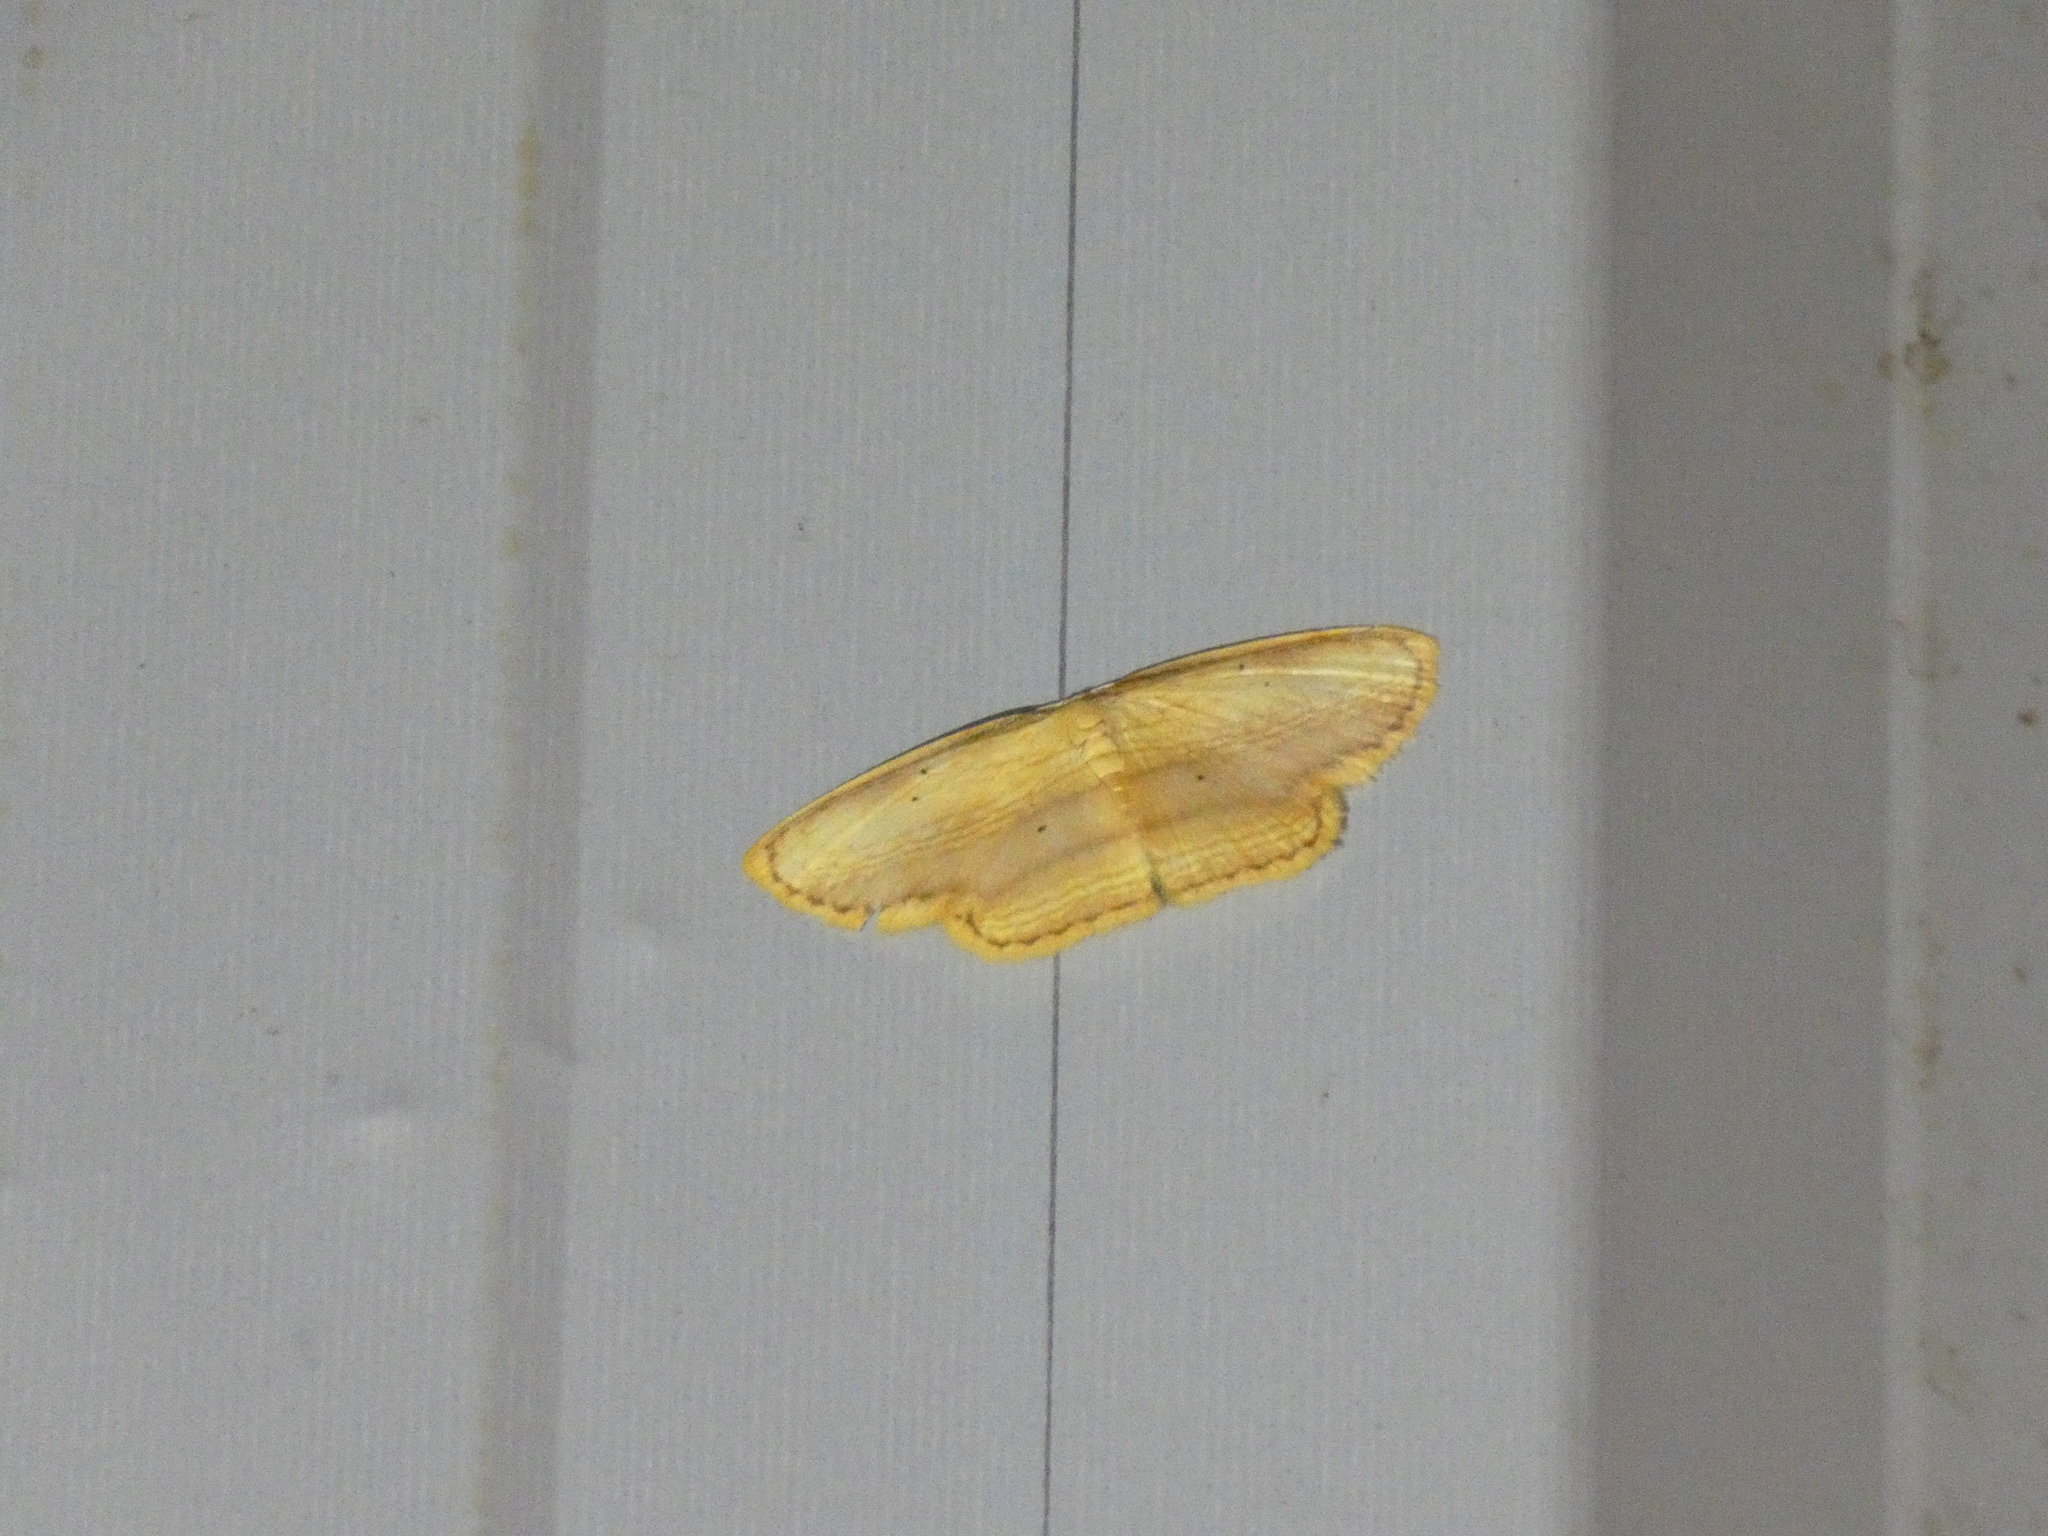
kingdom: Animalia
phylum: Arthropoda
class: Insecta
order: Lepidoptera
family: Drepanidae
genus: Drapetodes
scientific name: Drapetodes mitaria
